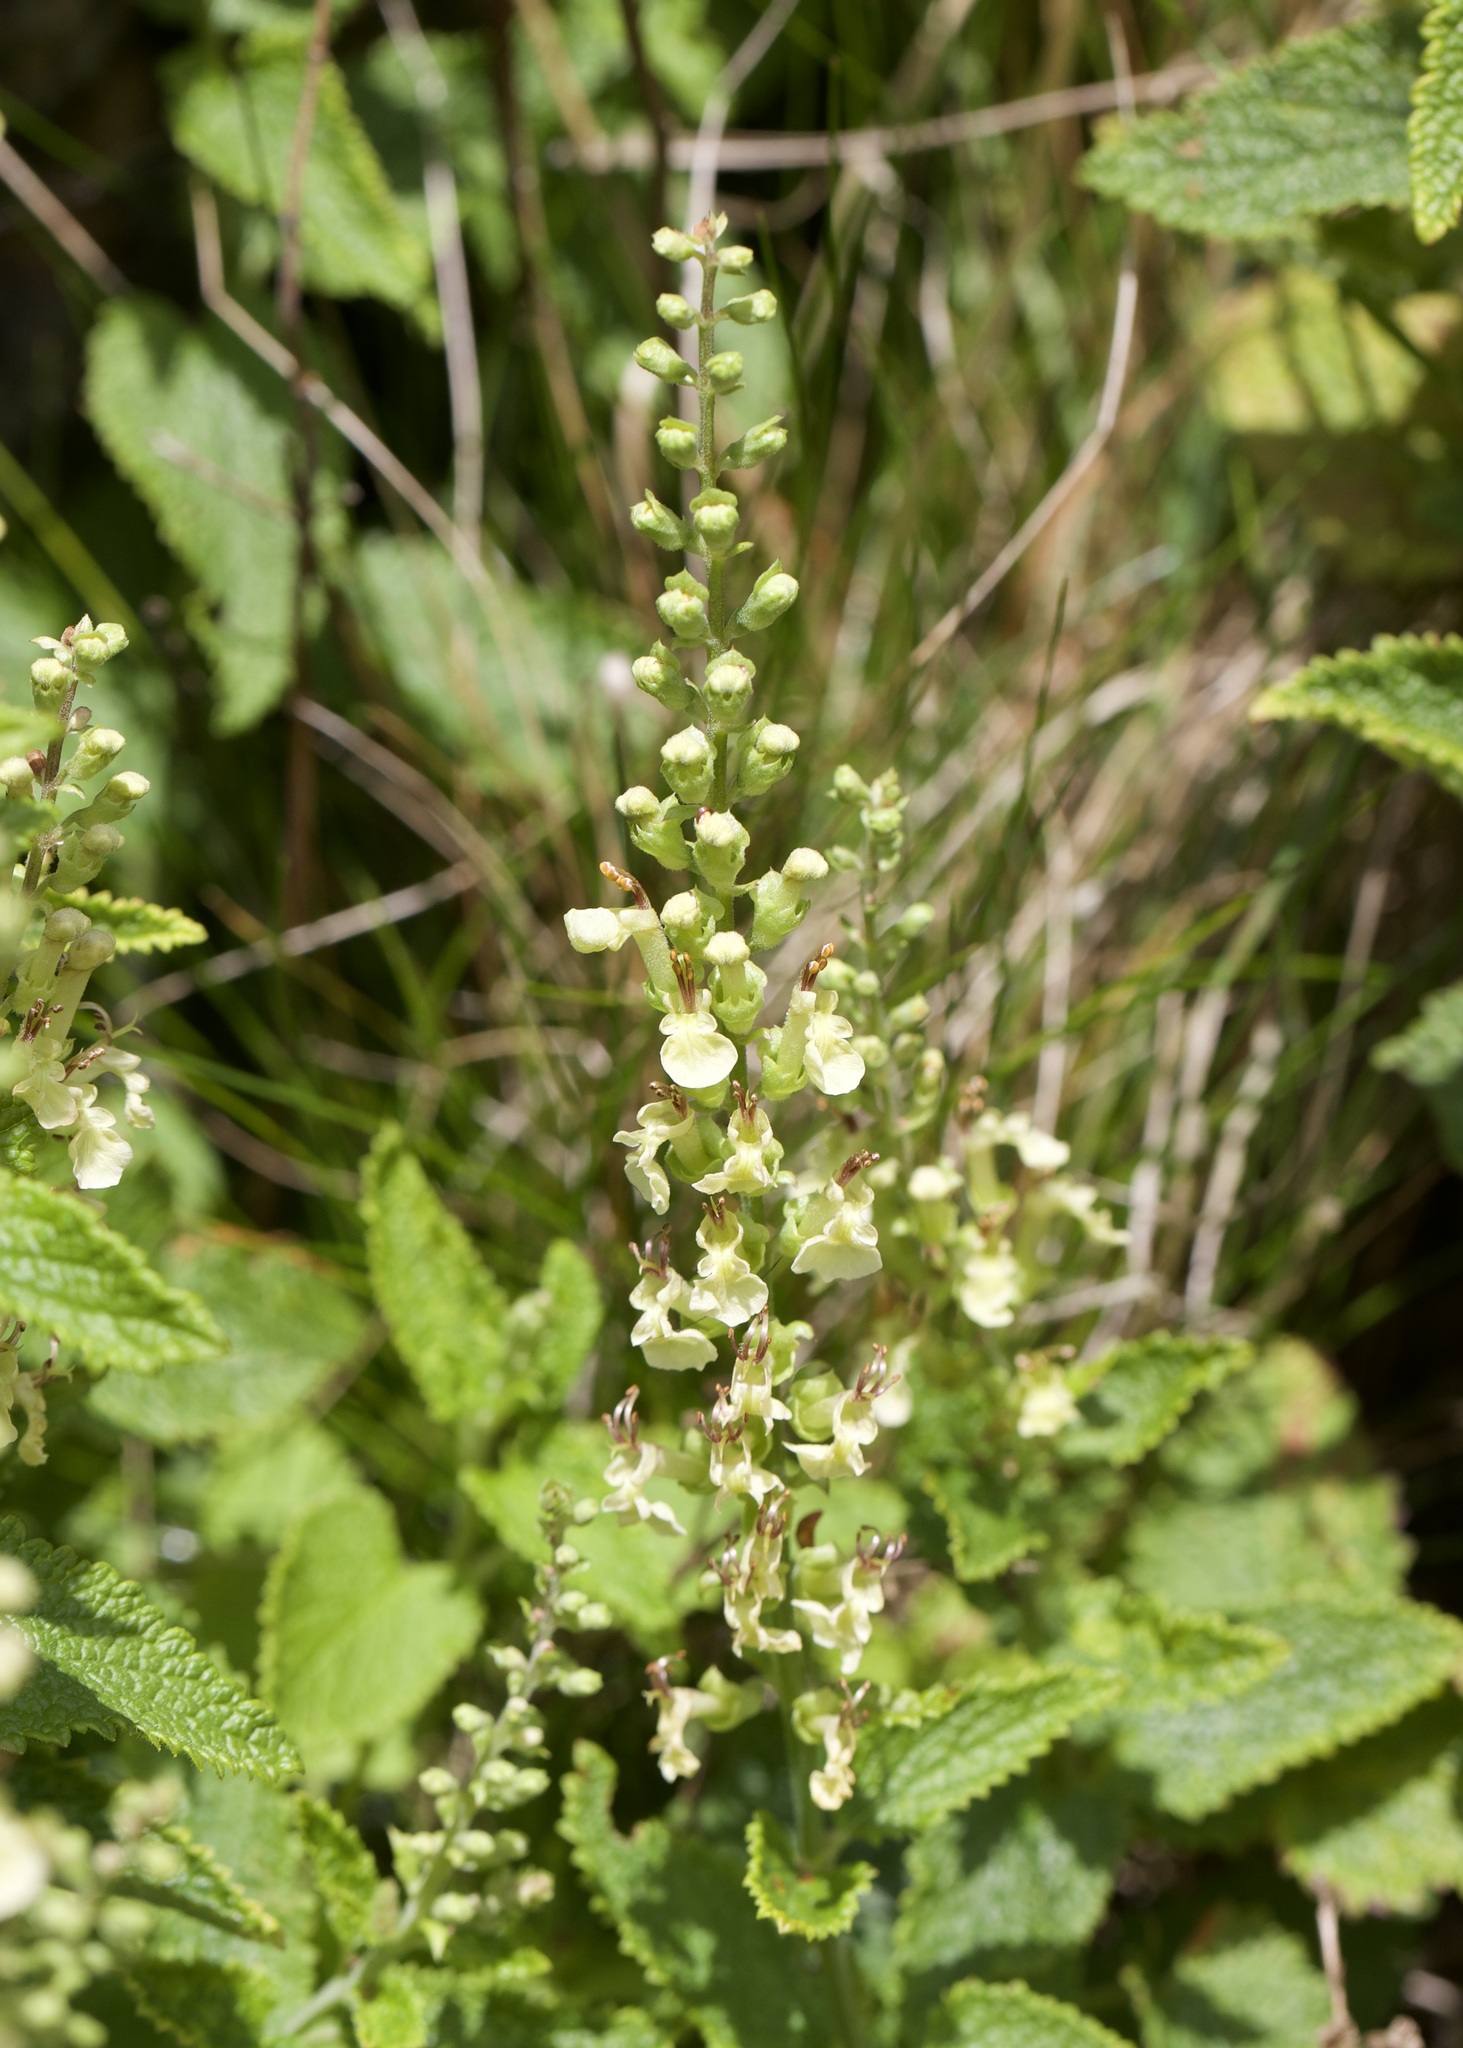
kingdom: Plantae
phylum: Tracheophyta
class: Magnoliopsida
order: Lamiales
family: Lamiaceae
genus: Teucrium
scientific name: Teucrium scorodonia
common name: Woodland germander
